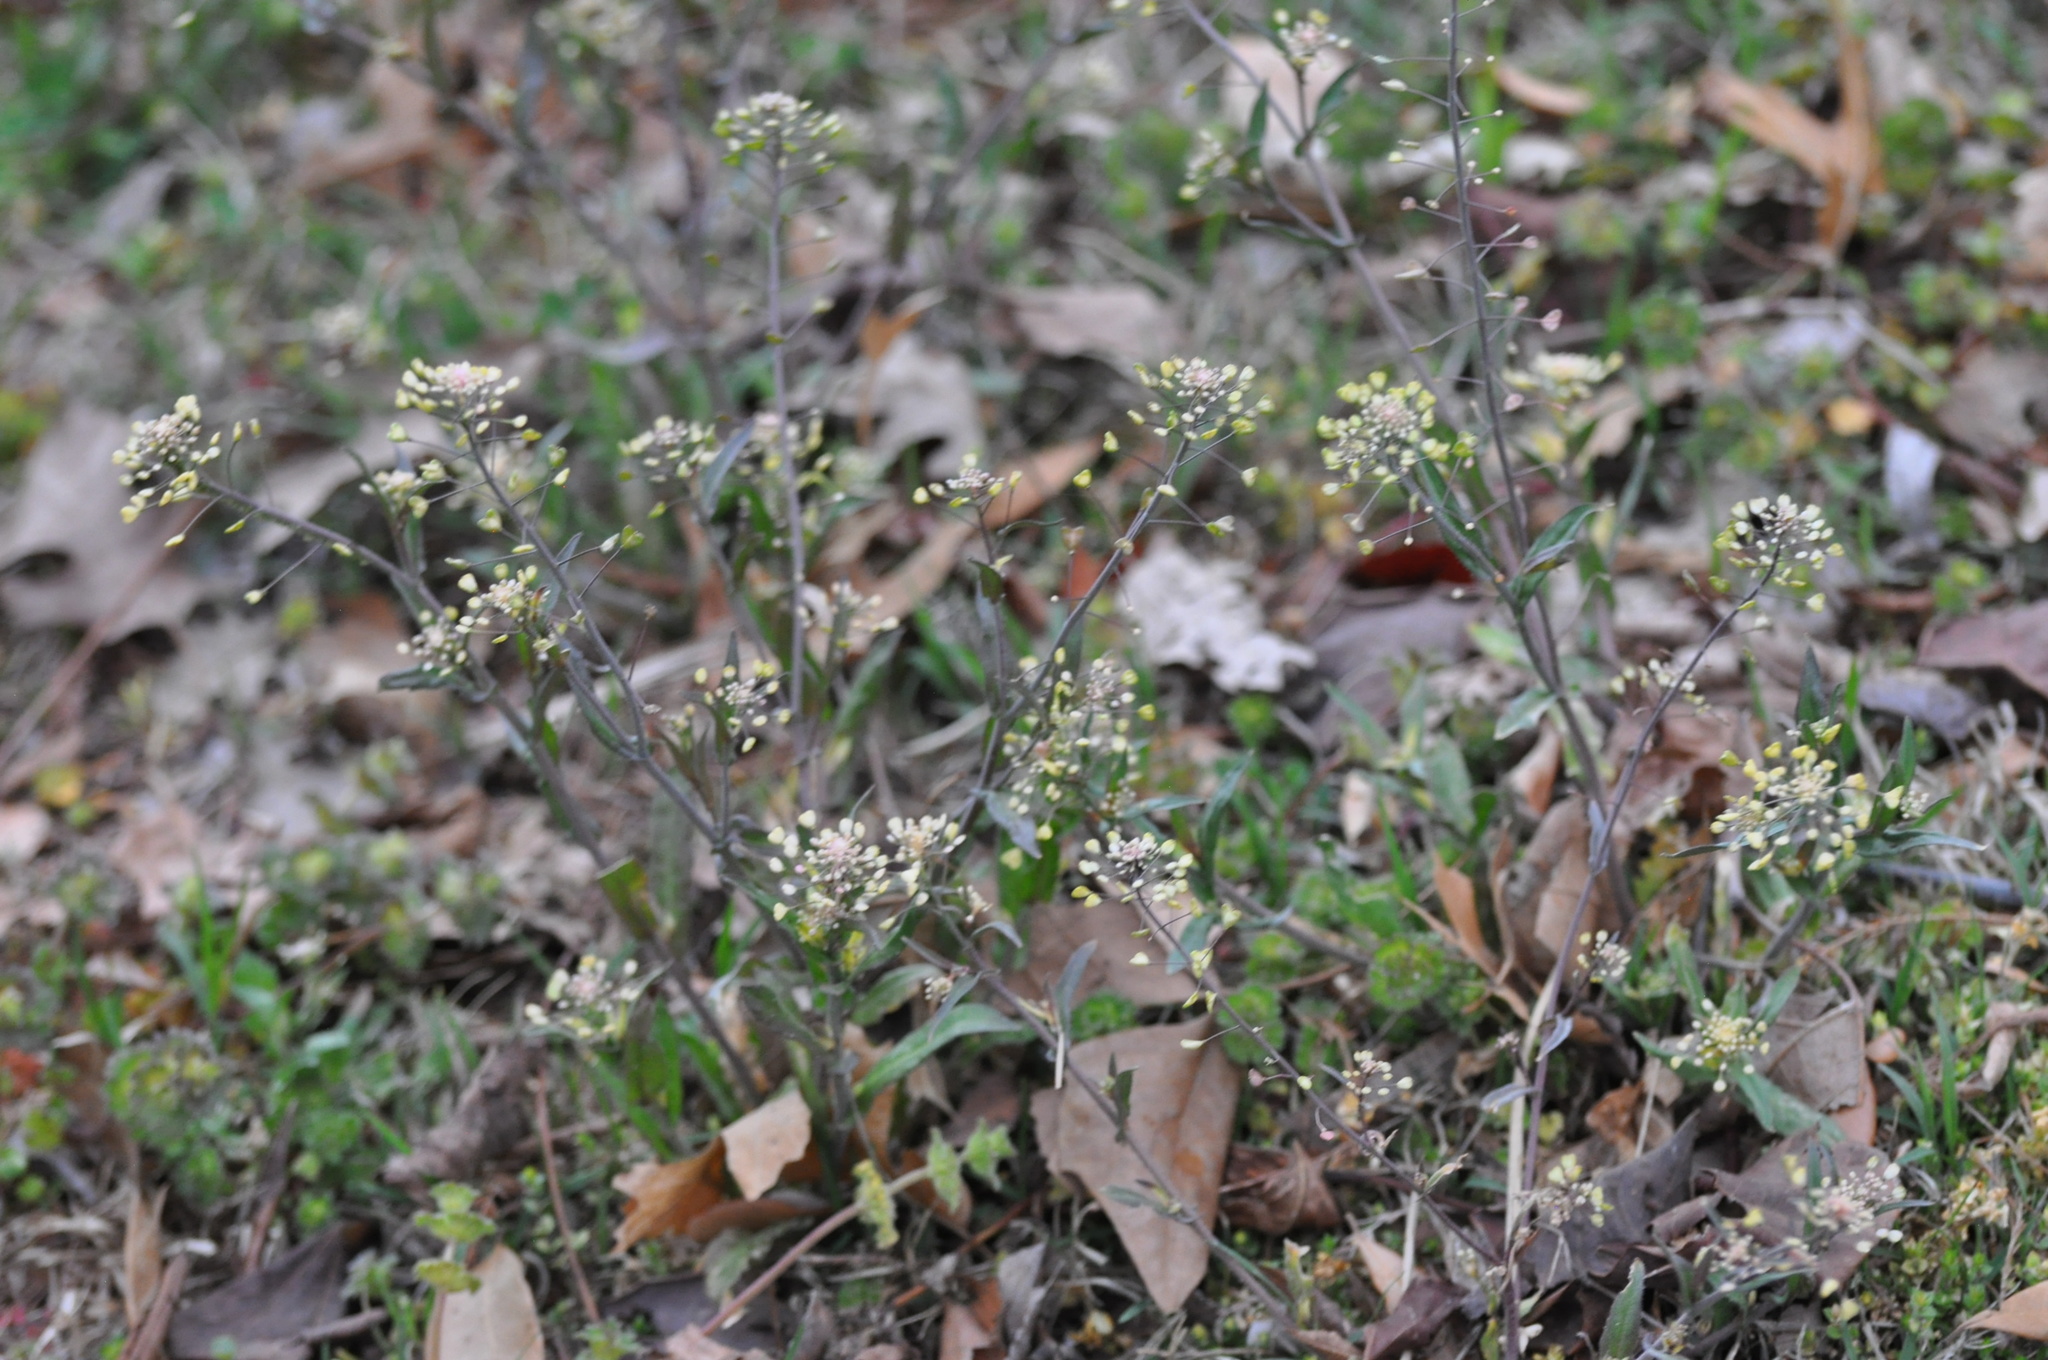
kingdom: Plantae
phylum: Tracheophyta
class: Magnoliopsida
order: Brassicales
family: Brassicaceae
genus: Capsella
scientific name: Capsella bursa-pastoris
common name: Shepherd's purse
